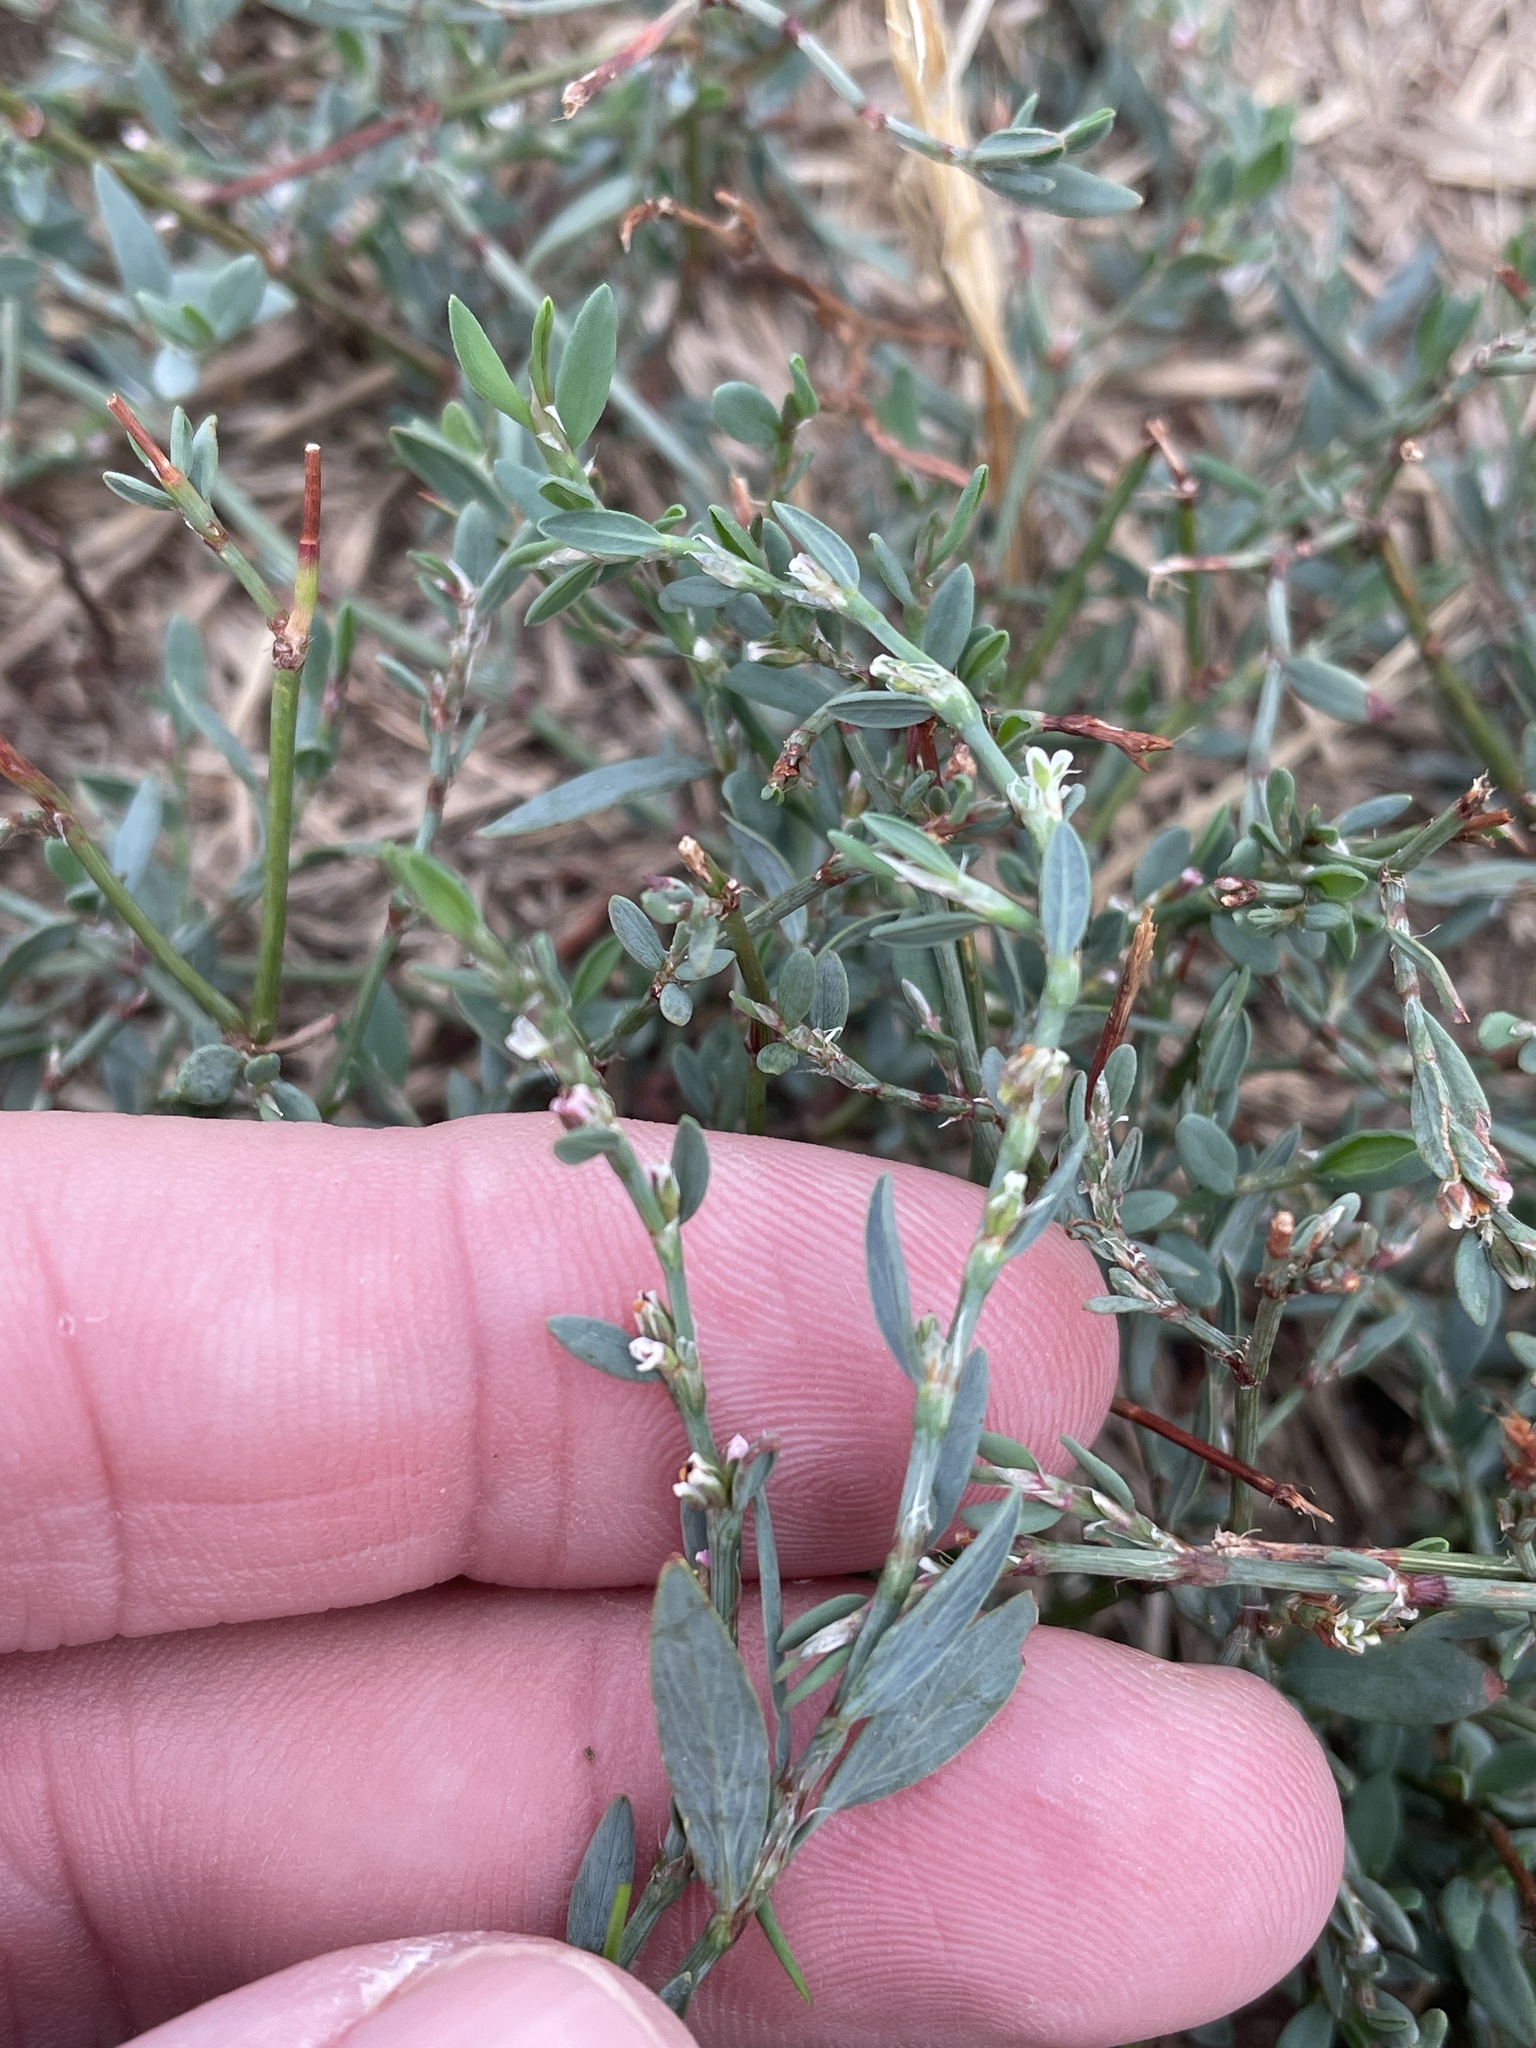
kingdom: Plantae
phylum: Tracheophyta
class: Magnoliopsida
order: Caryophyllales
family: Polygonaceae
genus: Polygonum
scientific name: Polygonum aviculare
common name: Prostrate knotweed
